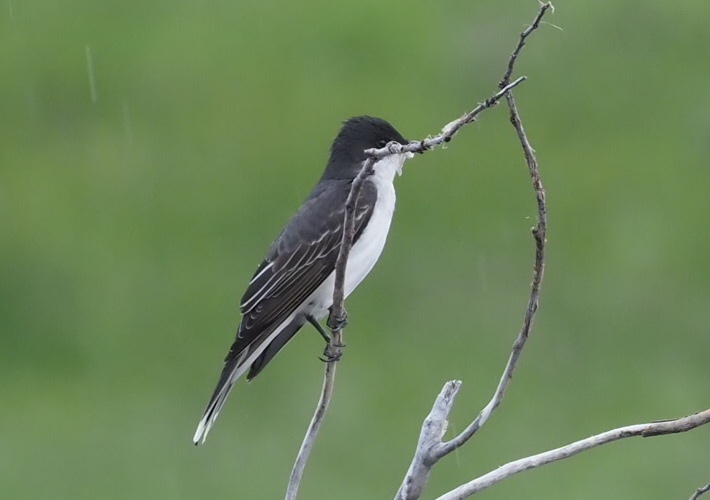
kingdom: Animalia
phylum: Chordata
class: Aves
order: Passeriformes
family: Tyrannidae
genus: Tyrannus
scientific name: Tyrannus tyrannus
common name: Eastern kingbird
